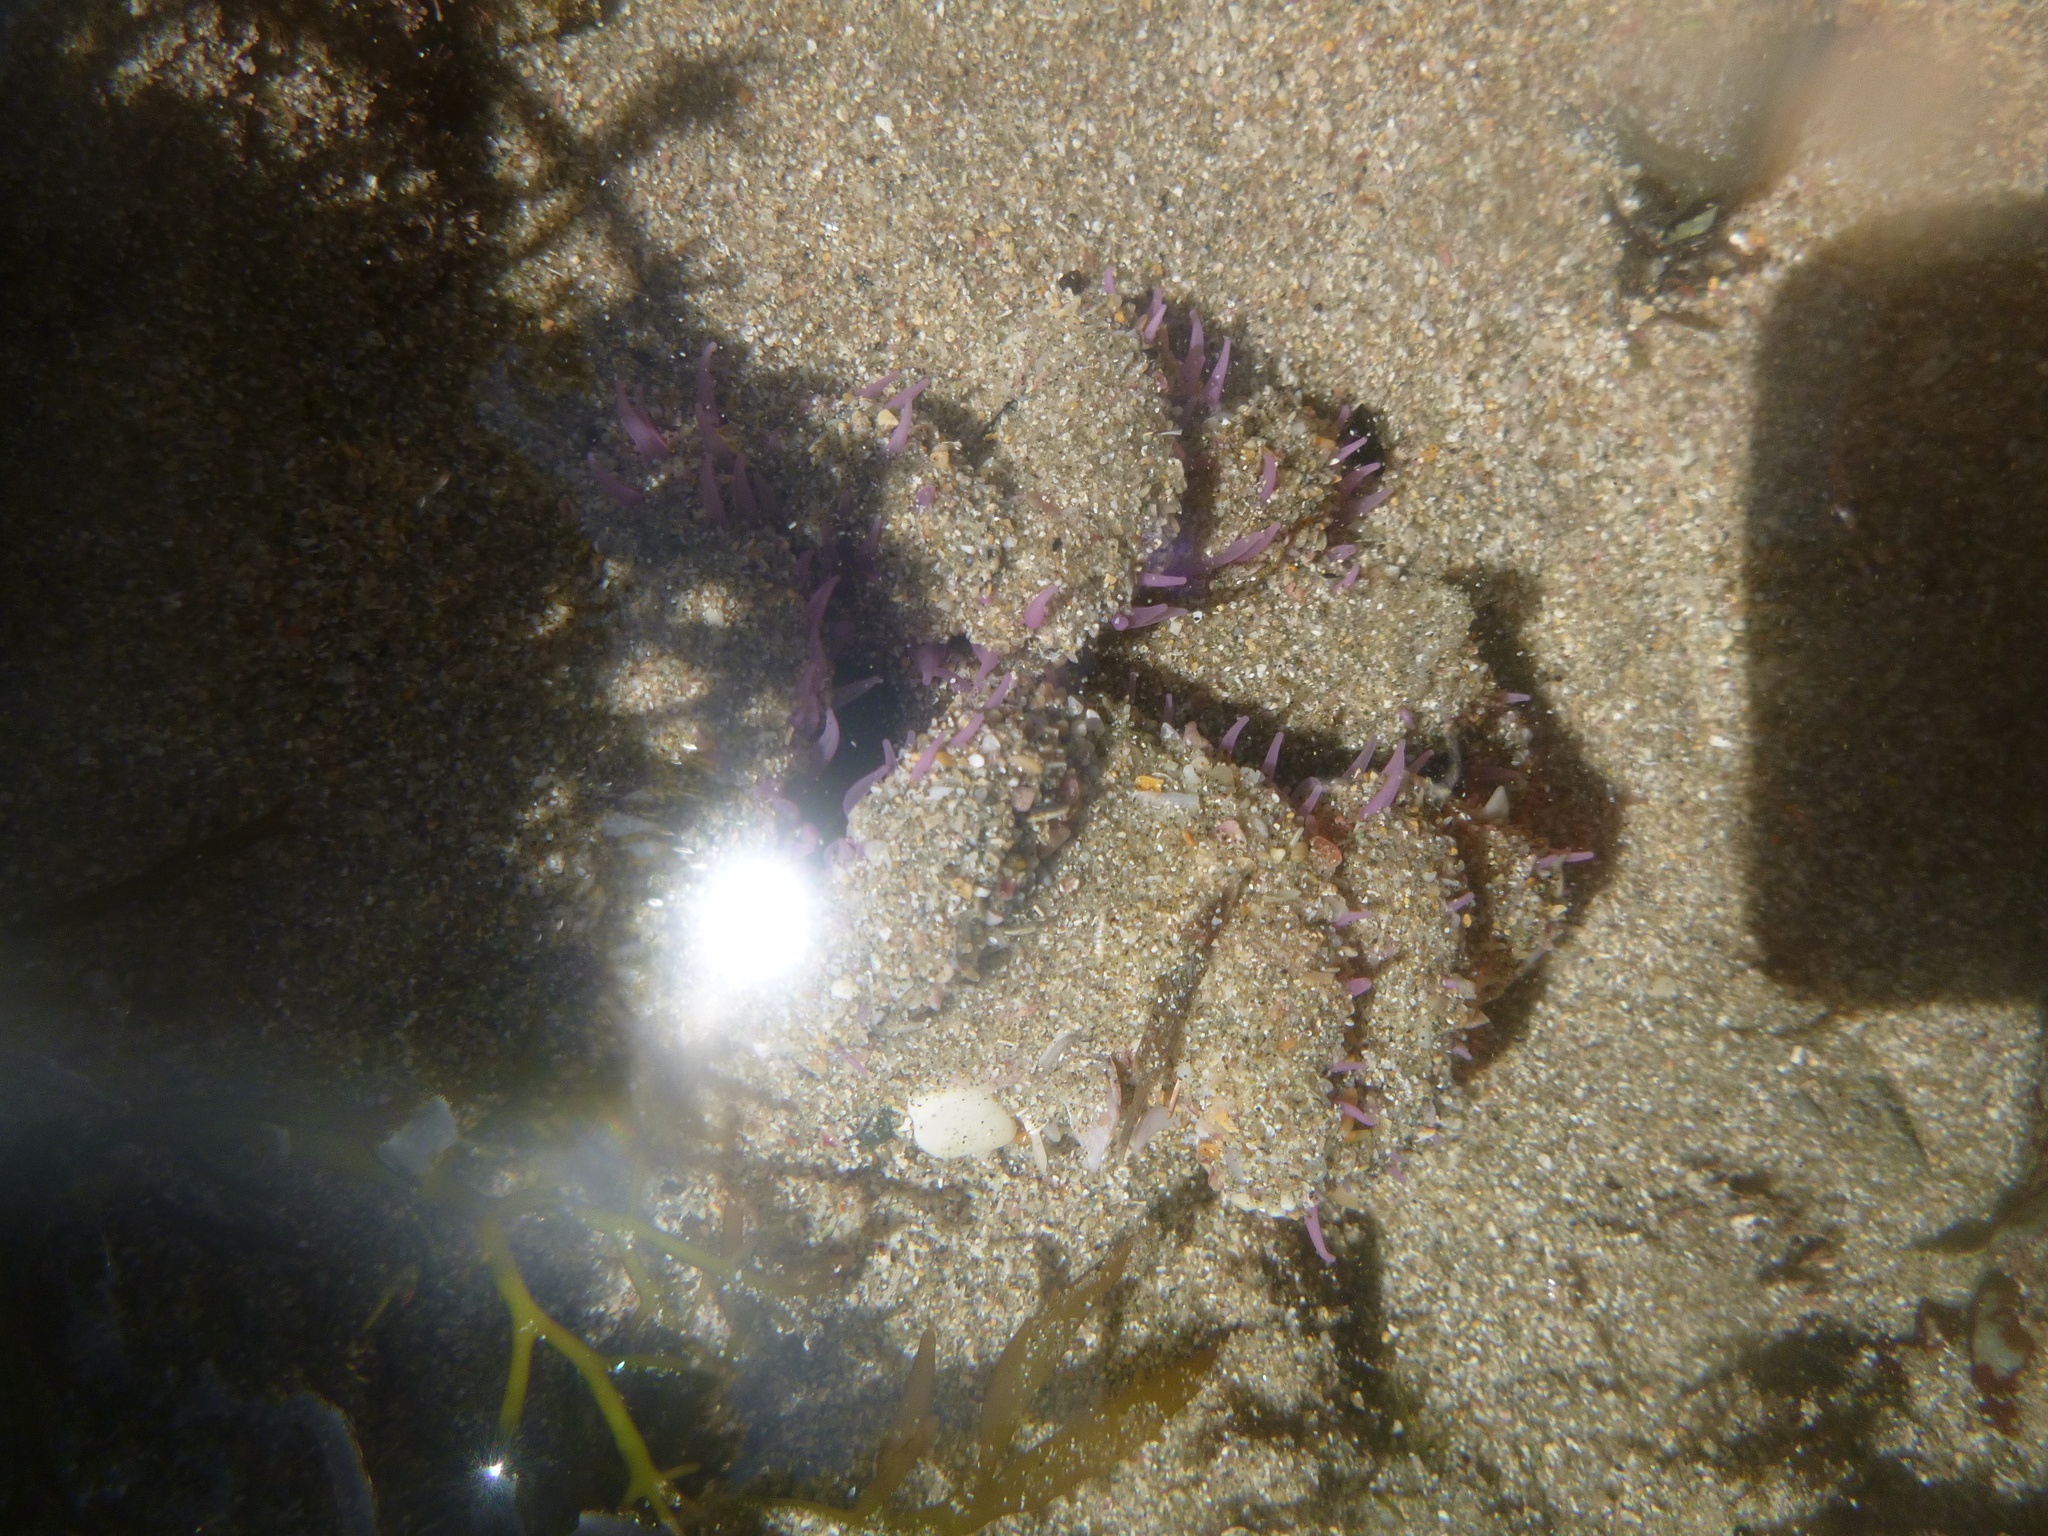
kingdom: Animalia
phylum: Cnidaria
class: Anthozoa
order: Actiniaria
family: Actiniidae
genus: Oulactis
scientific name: Oulactis magna
